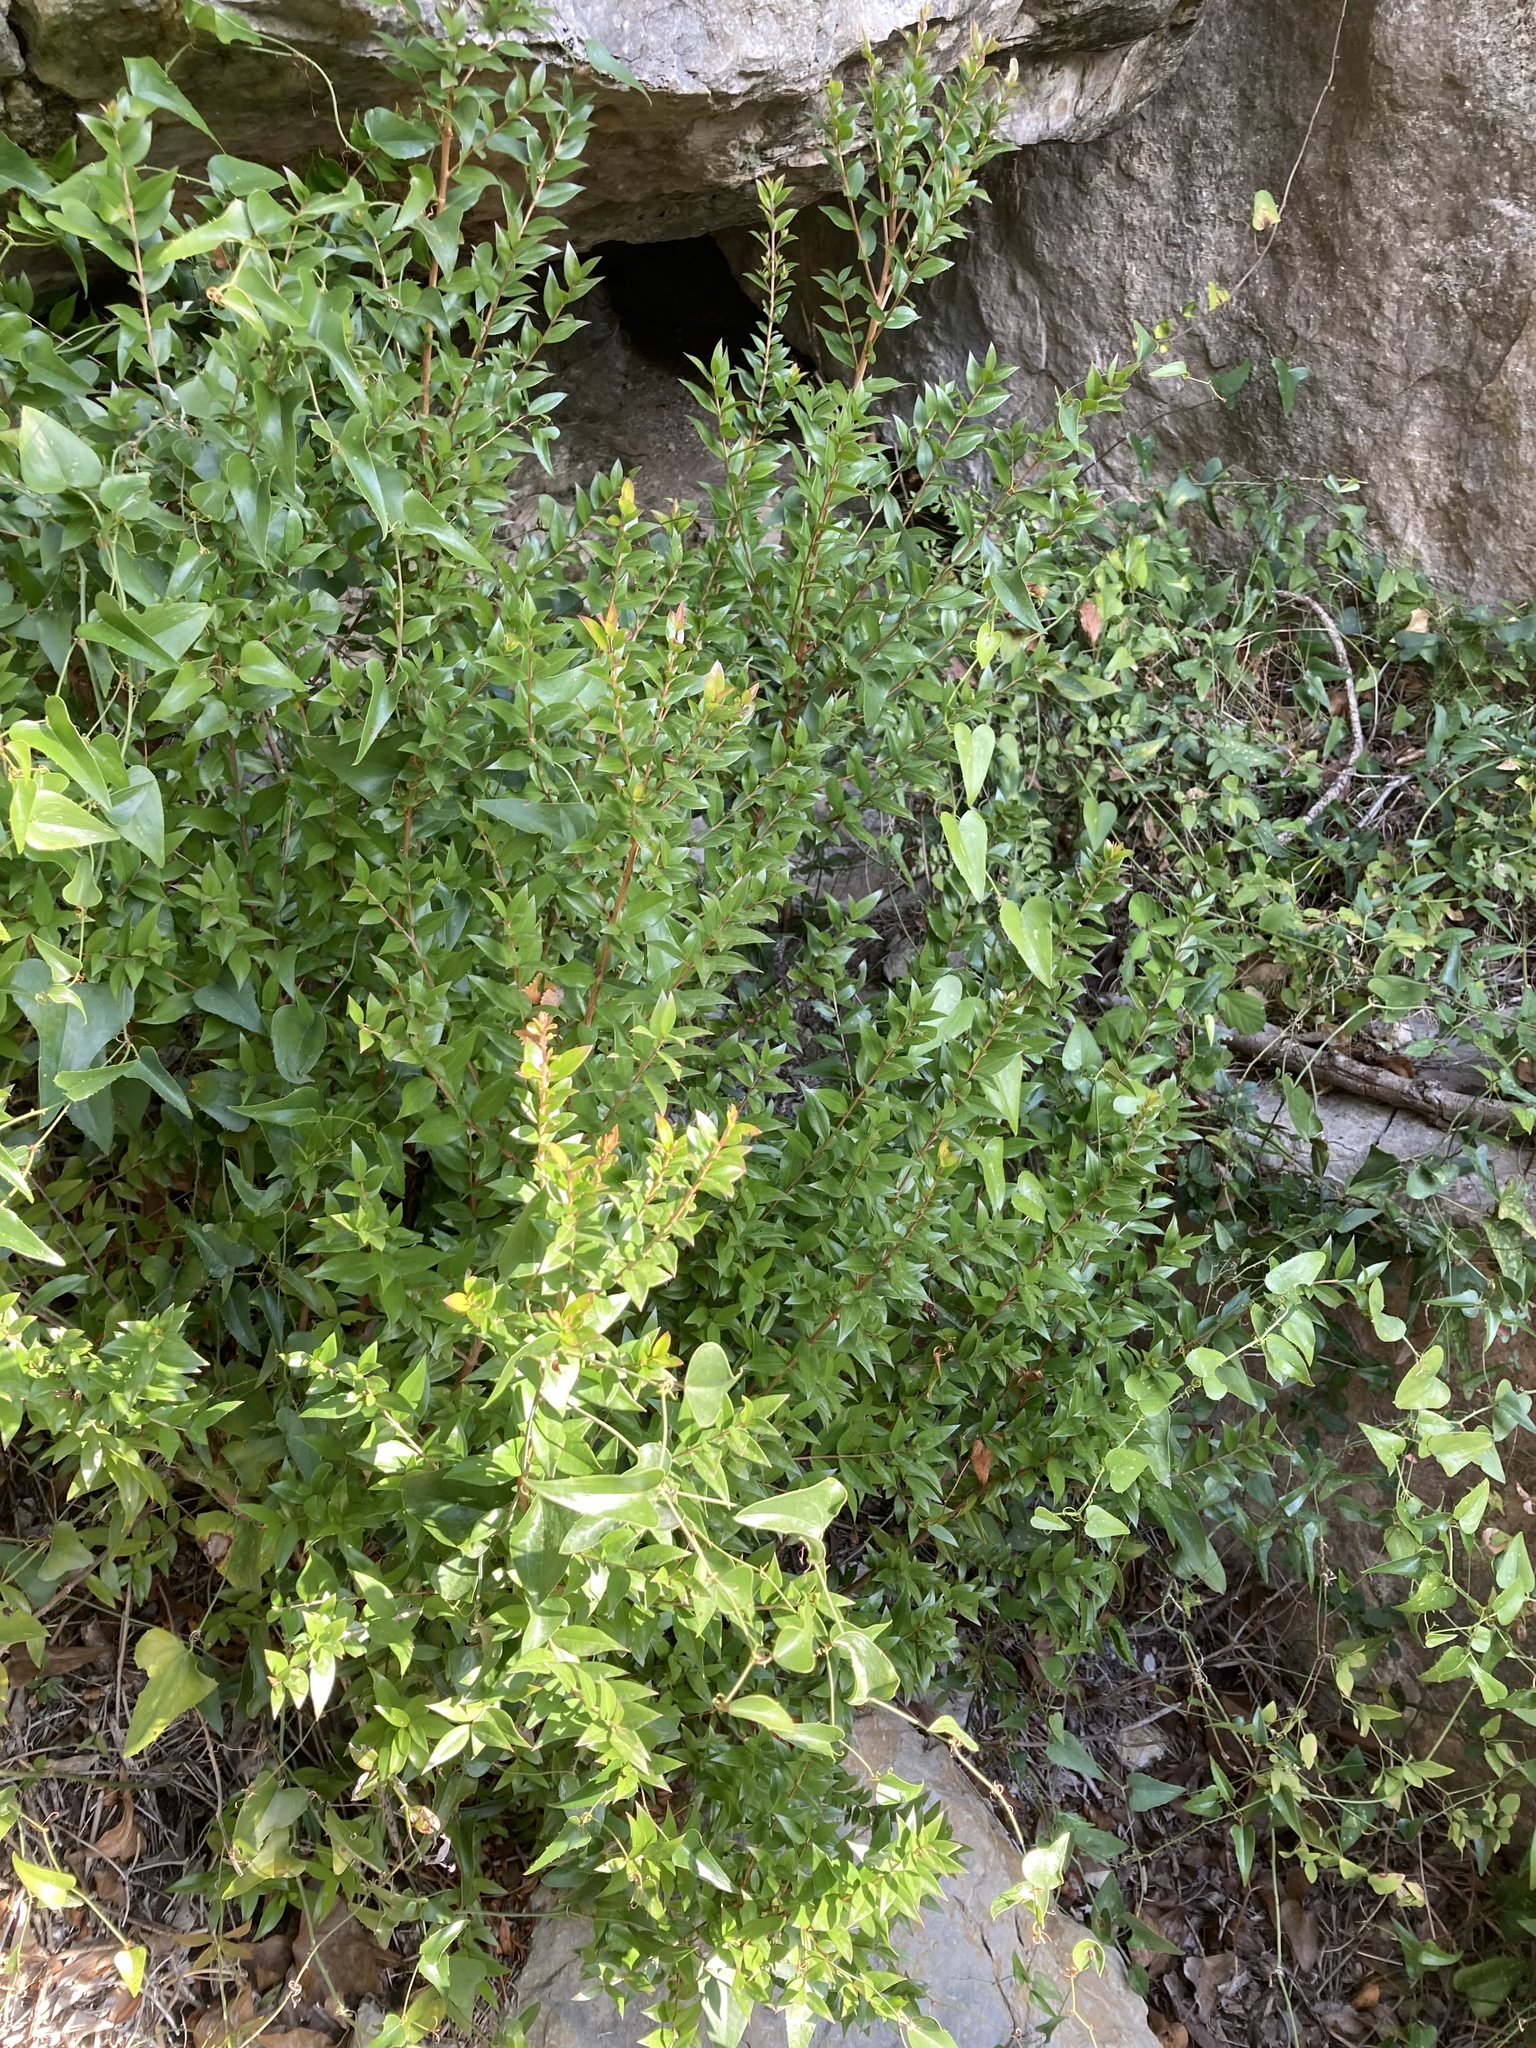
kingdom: Plantae
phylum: Tracheophyta
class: Magnoliopsida
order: Myrtales
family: Myrtaceae
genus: Myrtus
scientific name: Myrtus communis
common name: Myrtle
